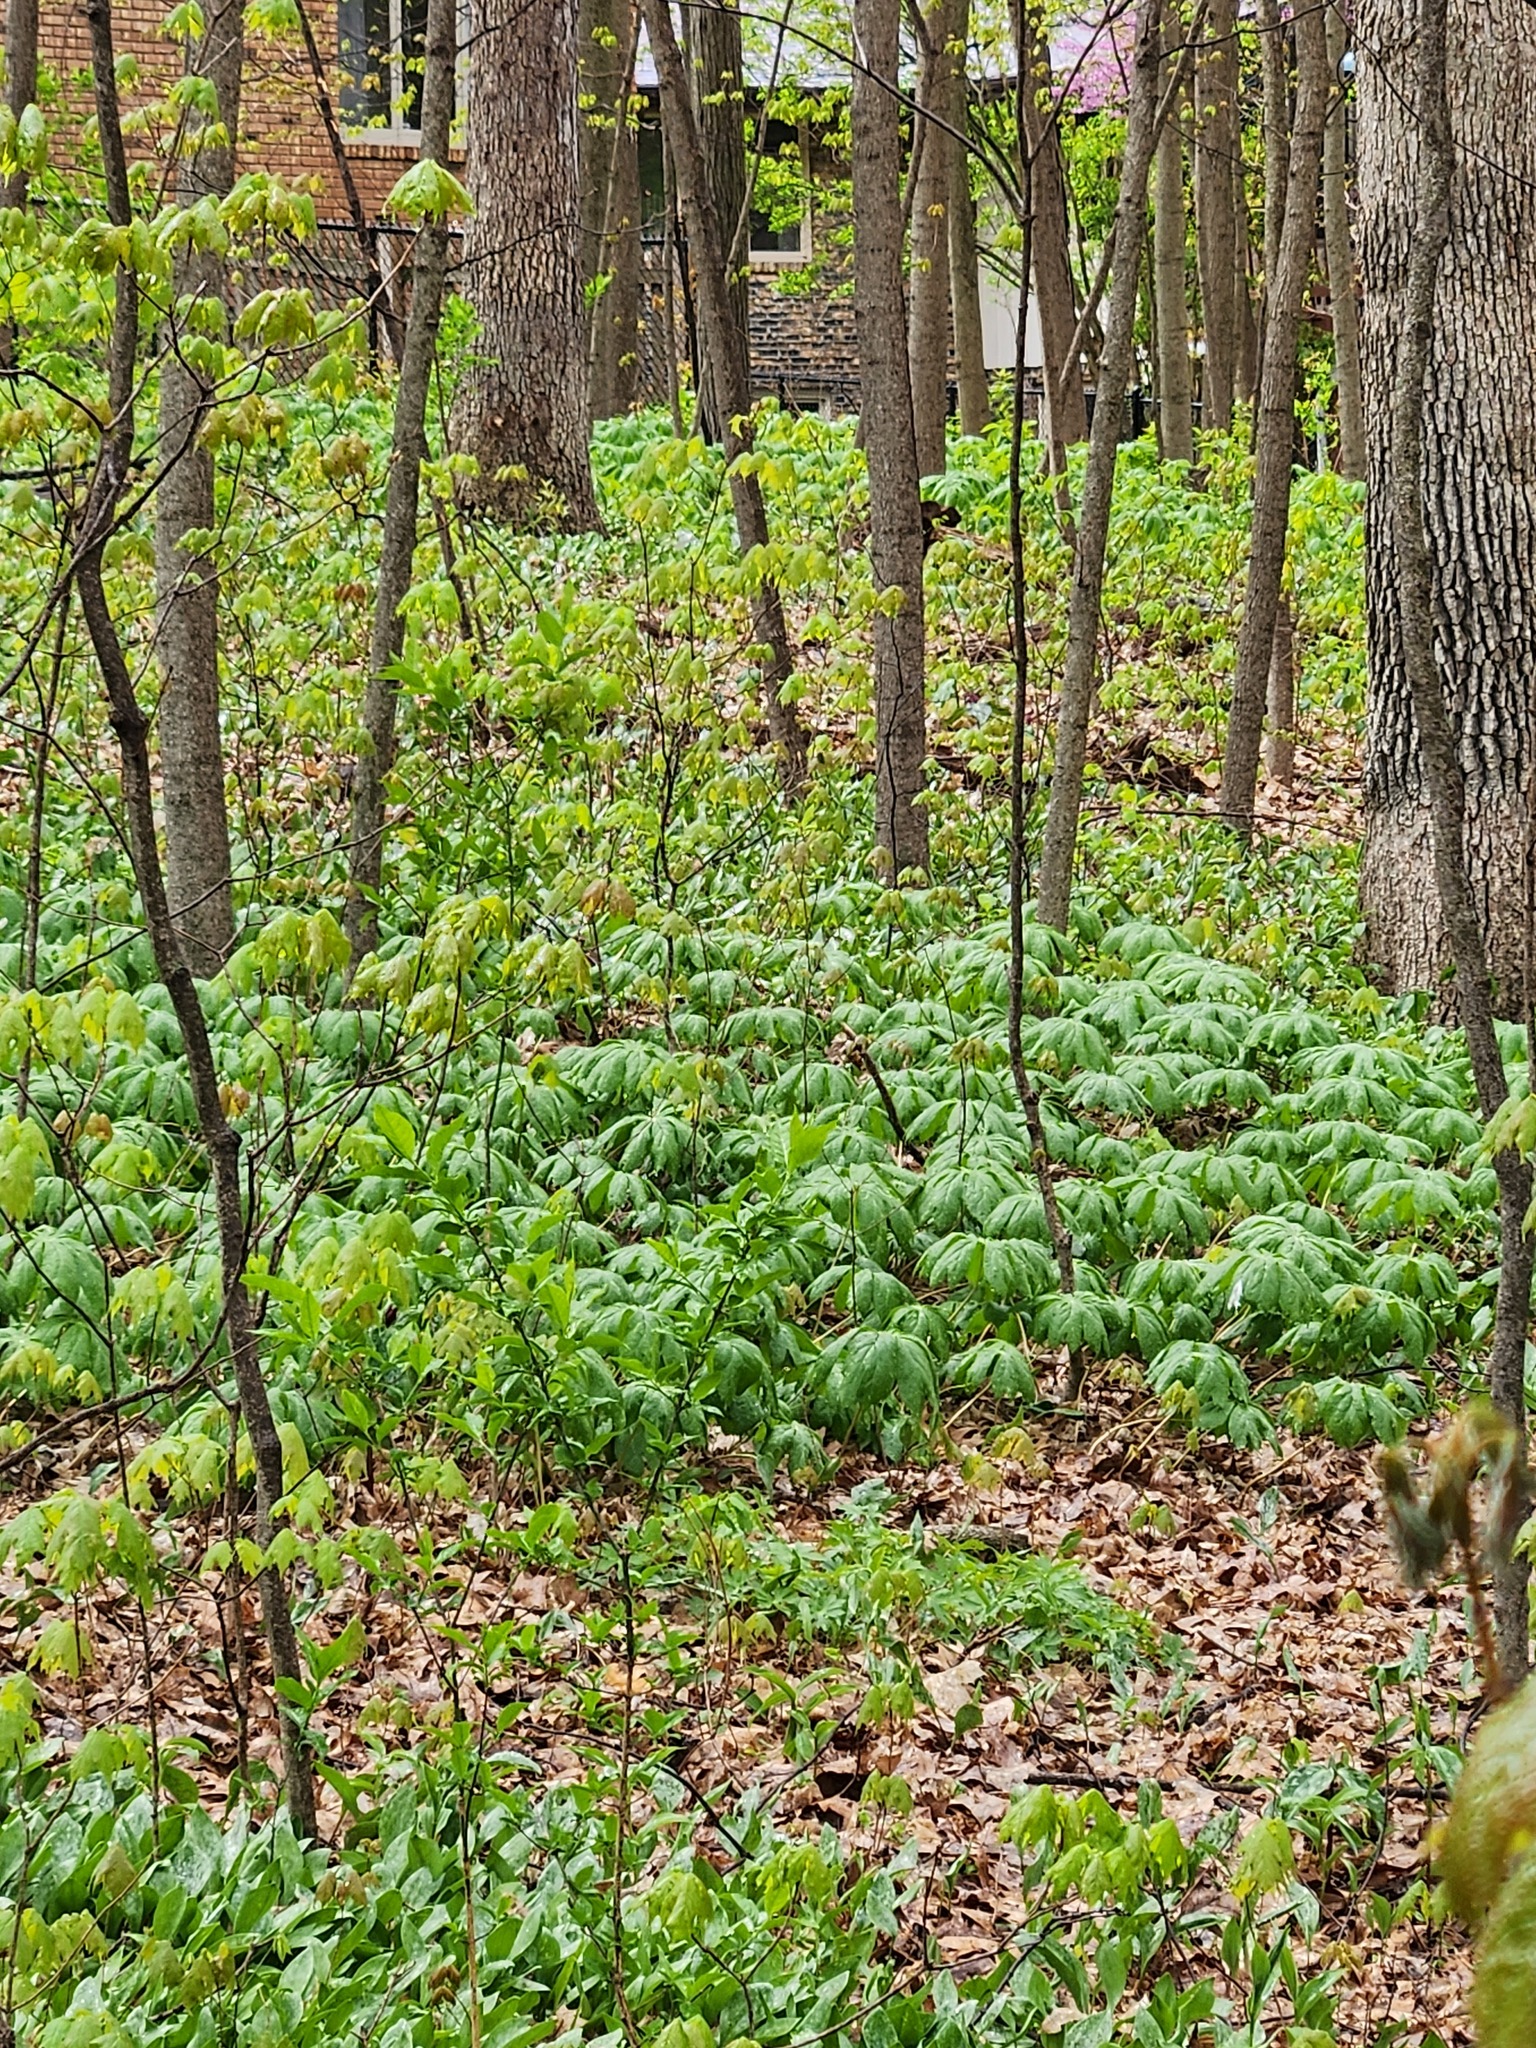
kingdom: Plantae
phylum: Tracheophyta
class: Magnoliopsida
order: Ranunculales
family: Berberidaceae
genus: Podophyllum
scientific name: Podophyllum peltatum
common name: Wild mandrake
